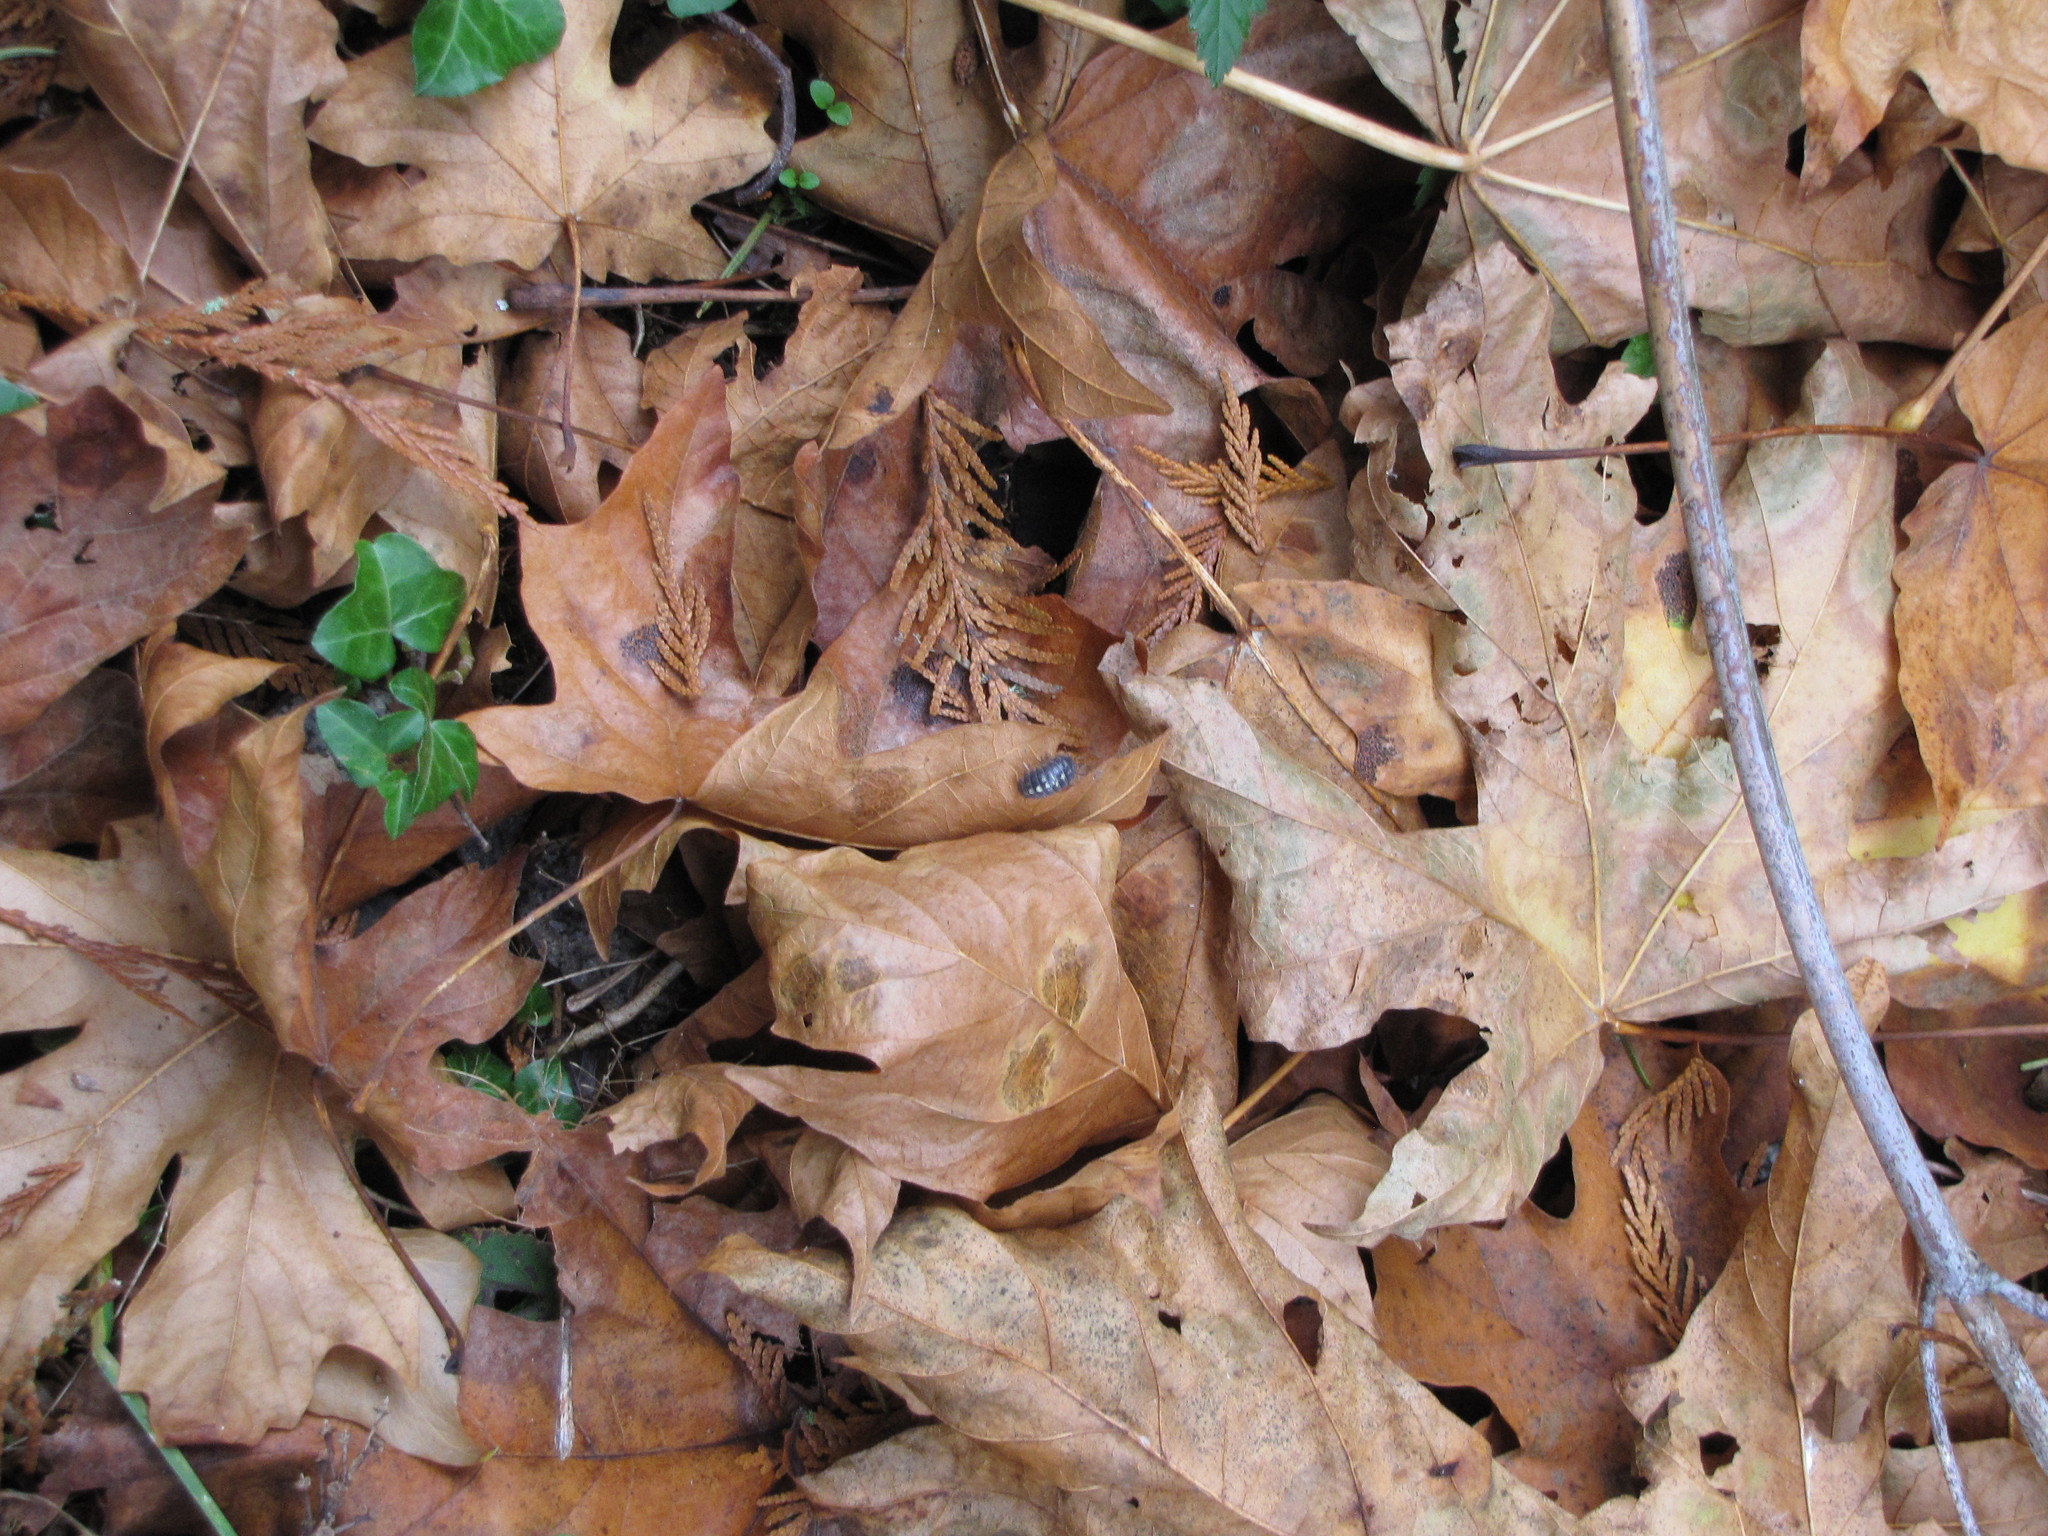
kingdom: Animalia
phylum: Arthropoda
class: Malacostraca
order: Isopoda
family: Armadillidiidae
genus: Armadillidium
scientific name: Armadillidium vulgare
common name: Common pill woodlouse
